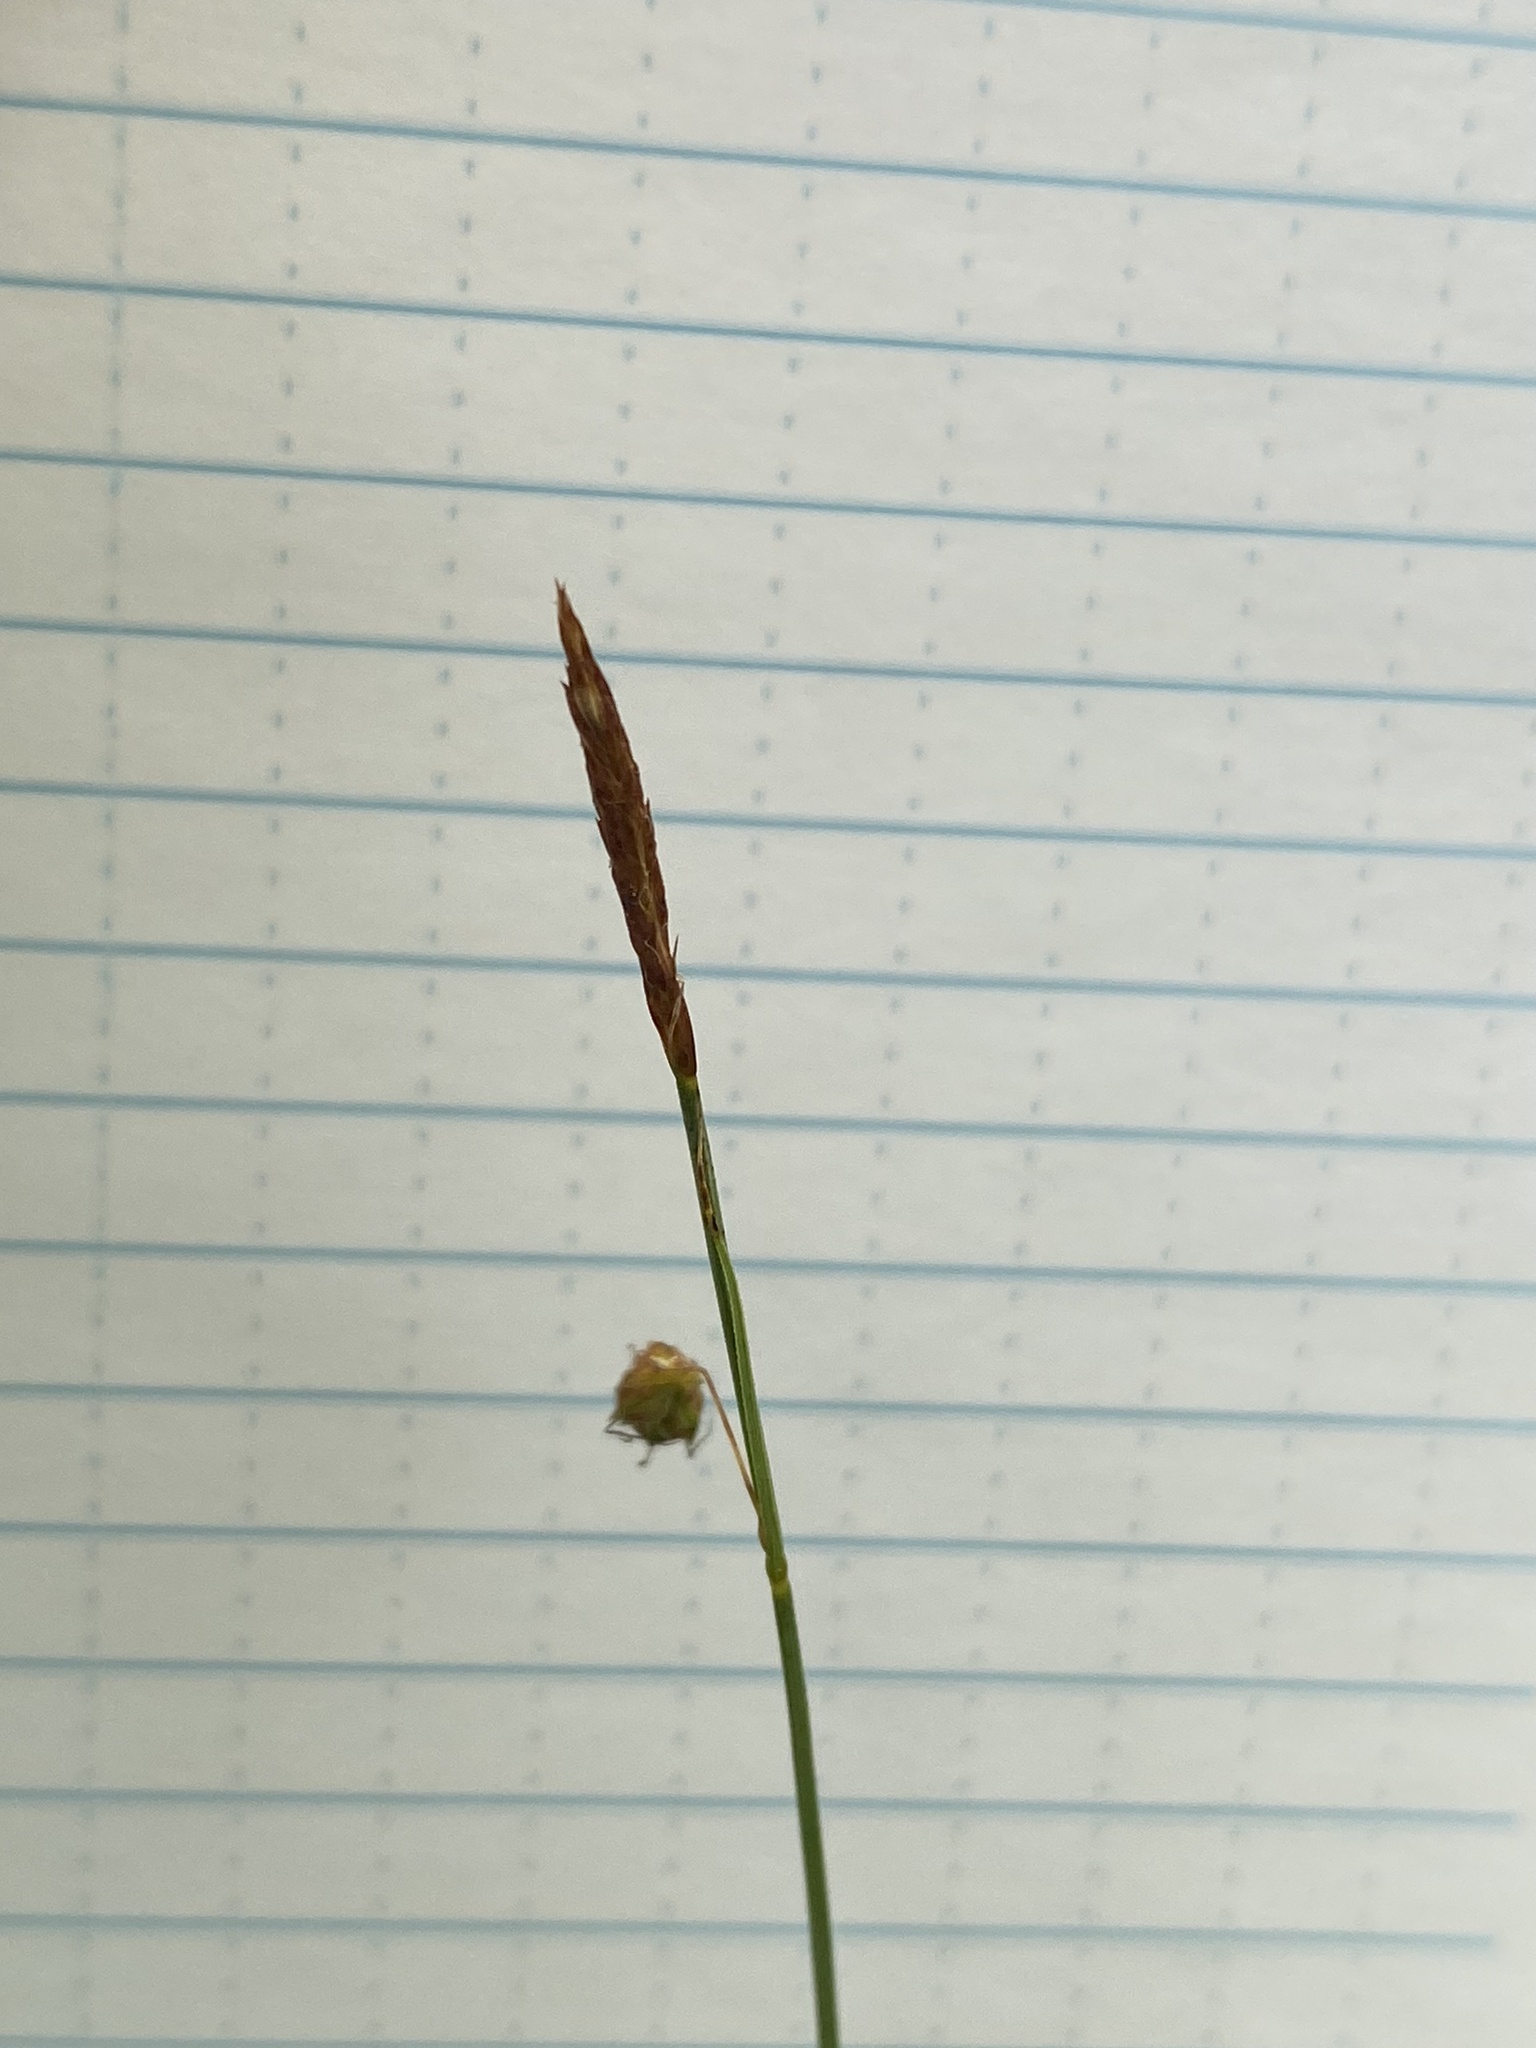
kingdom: Plantae
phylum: Tracheophyta
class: Liliopsida
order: Poales
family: Cyperaceae
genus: Carex
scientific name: Carex limosa
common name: Bog sedge
